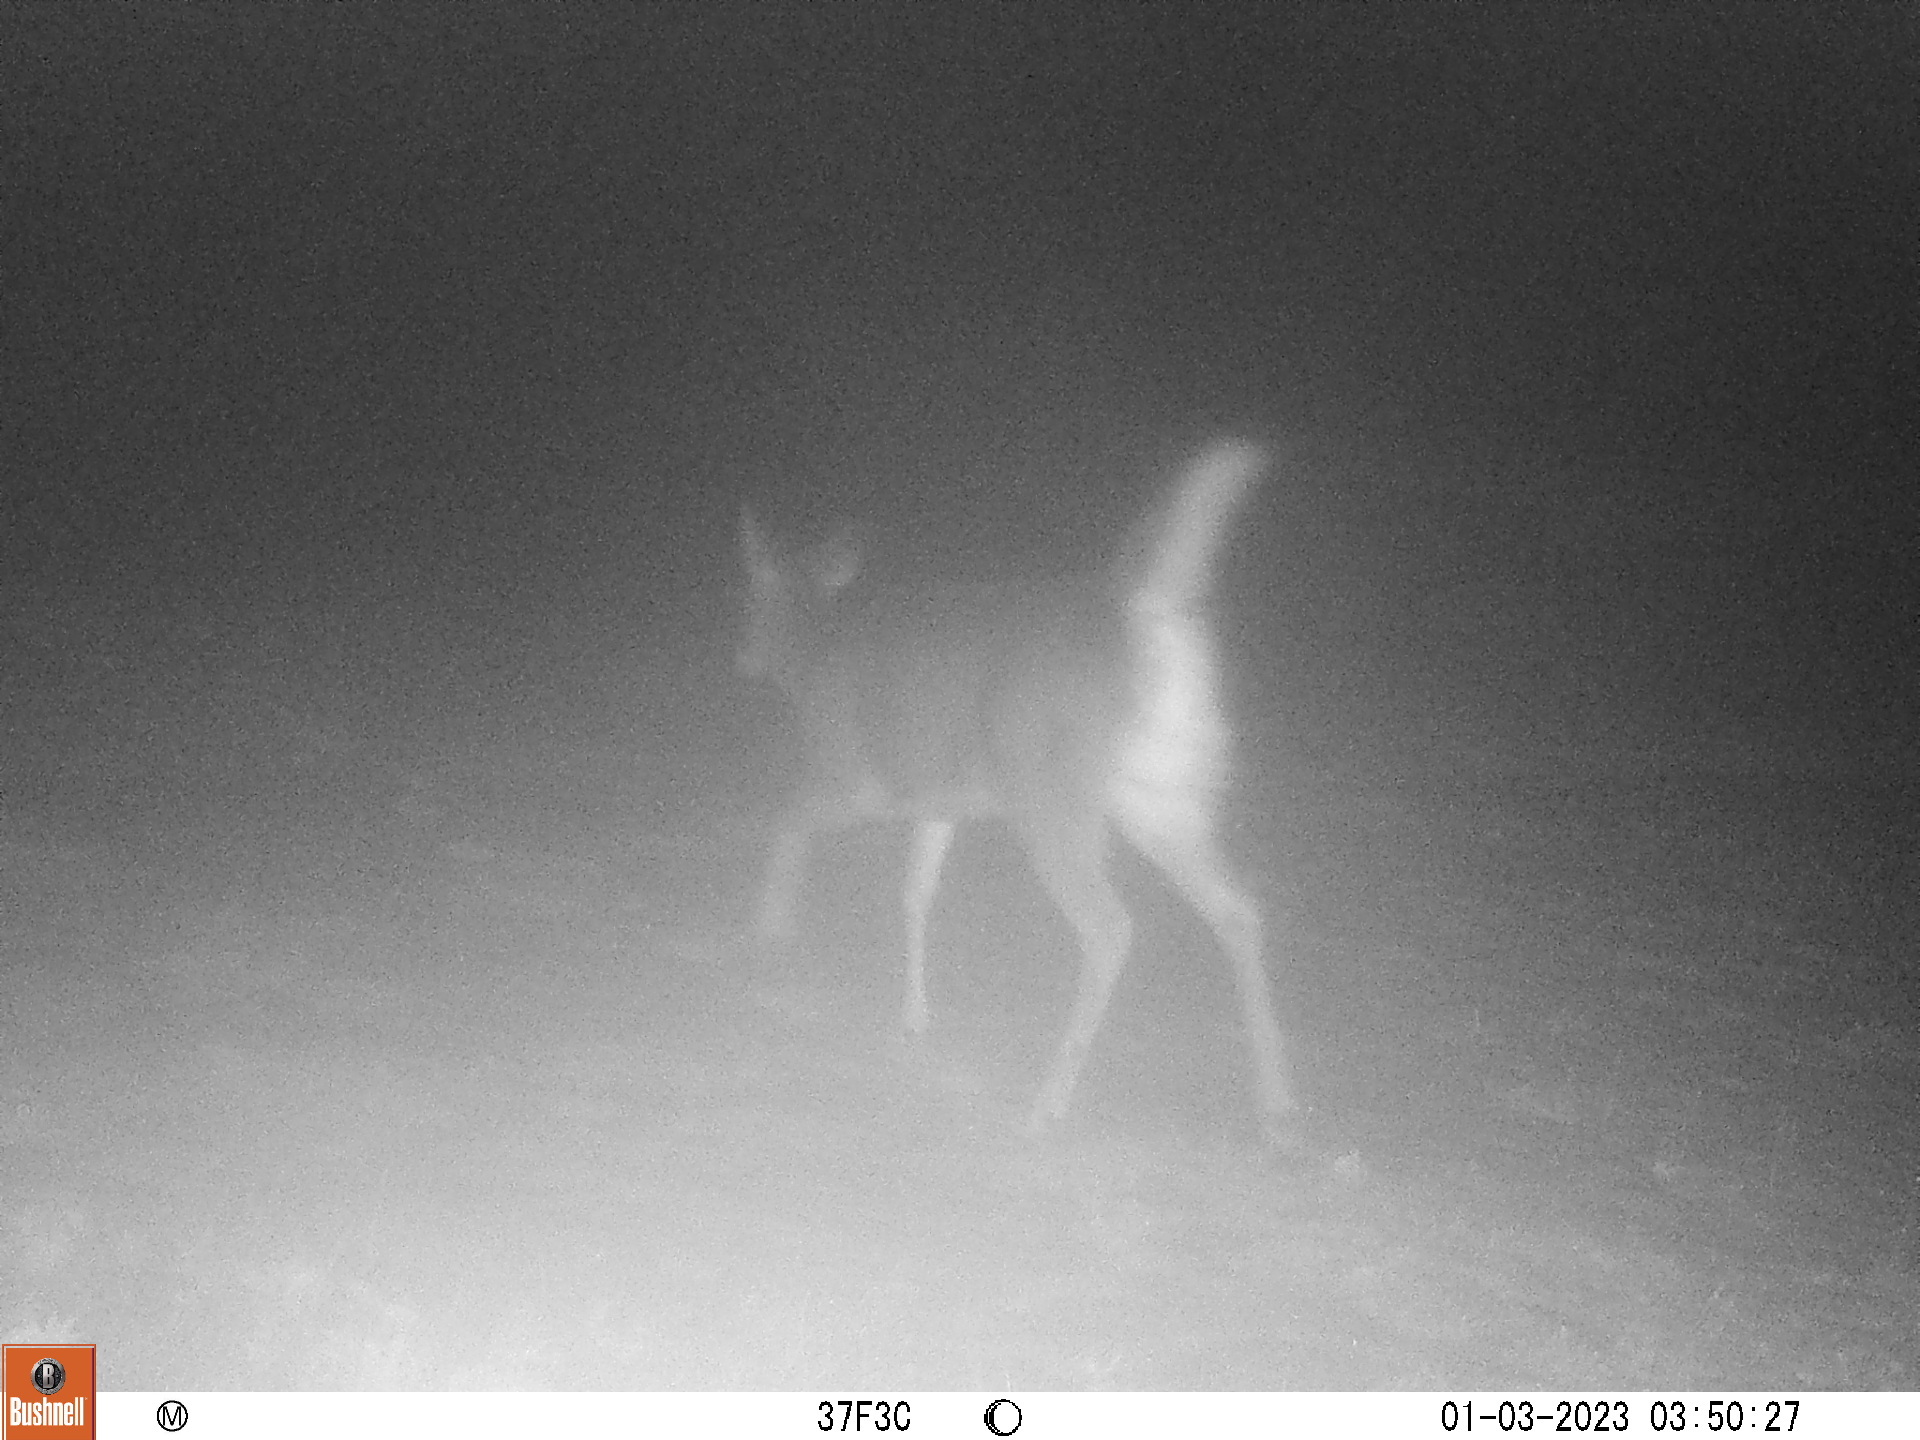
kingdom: Animalia
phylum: Chordata
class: Mammalia
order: Artiodactyla
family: Cervidae
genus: Odocoileus
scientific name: Odocoileus virginianus
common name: White-tailed deer
